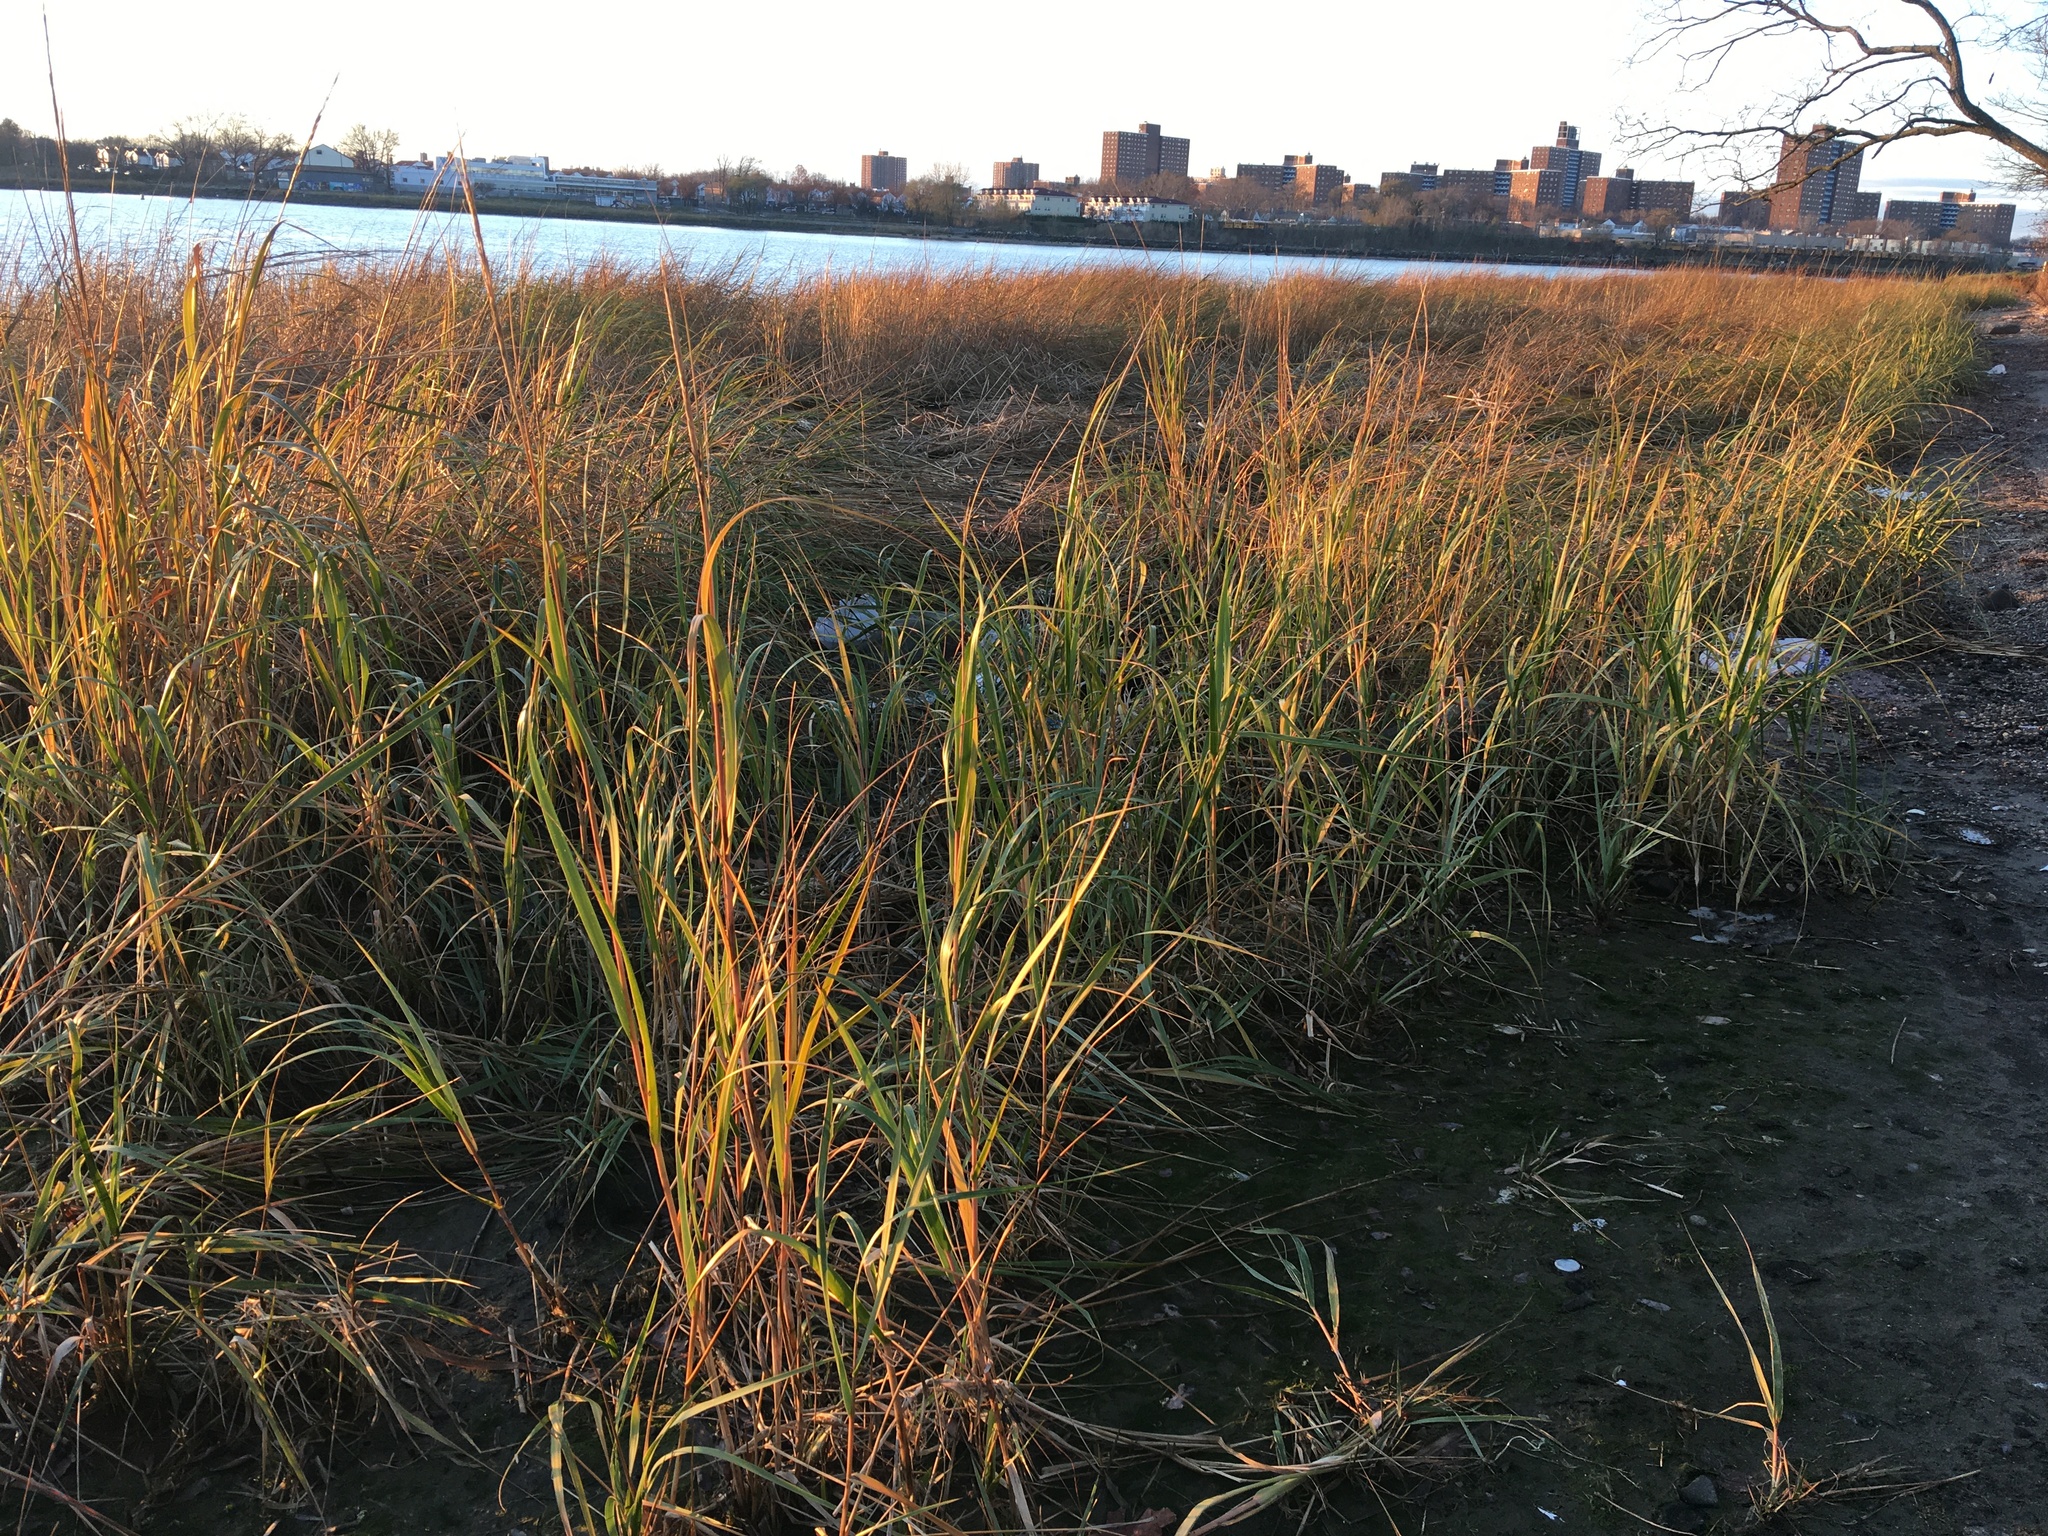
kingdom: Plantae
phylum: Tracheophyta
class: Liliopsida
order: Poales
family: Poaceae
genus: Sporobolus
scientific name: Sporobolus alterniflorus
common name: Atlantic cordgrass
